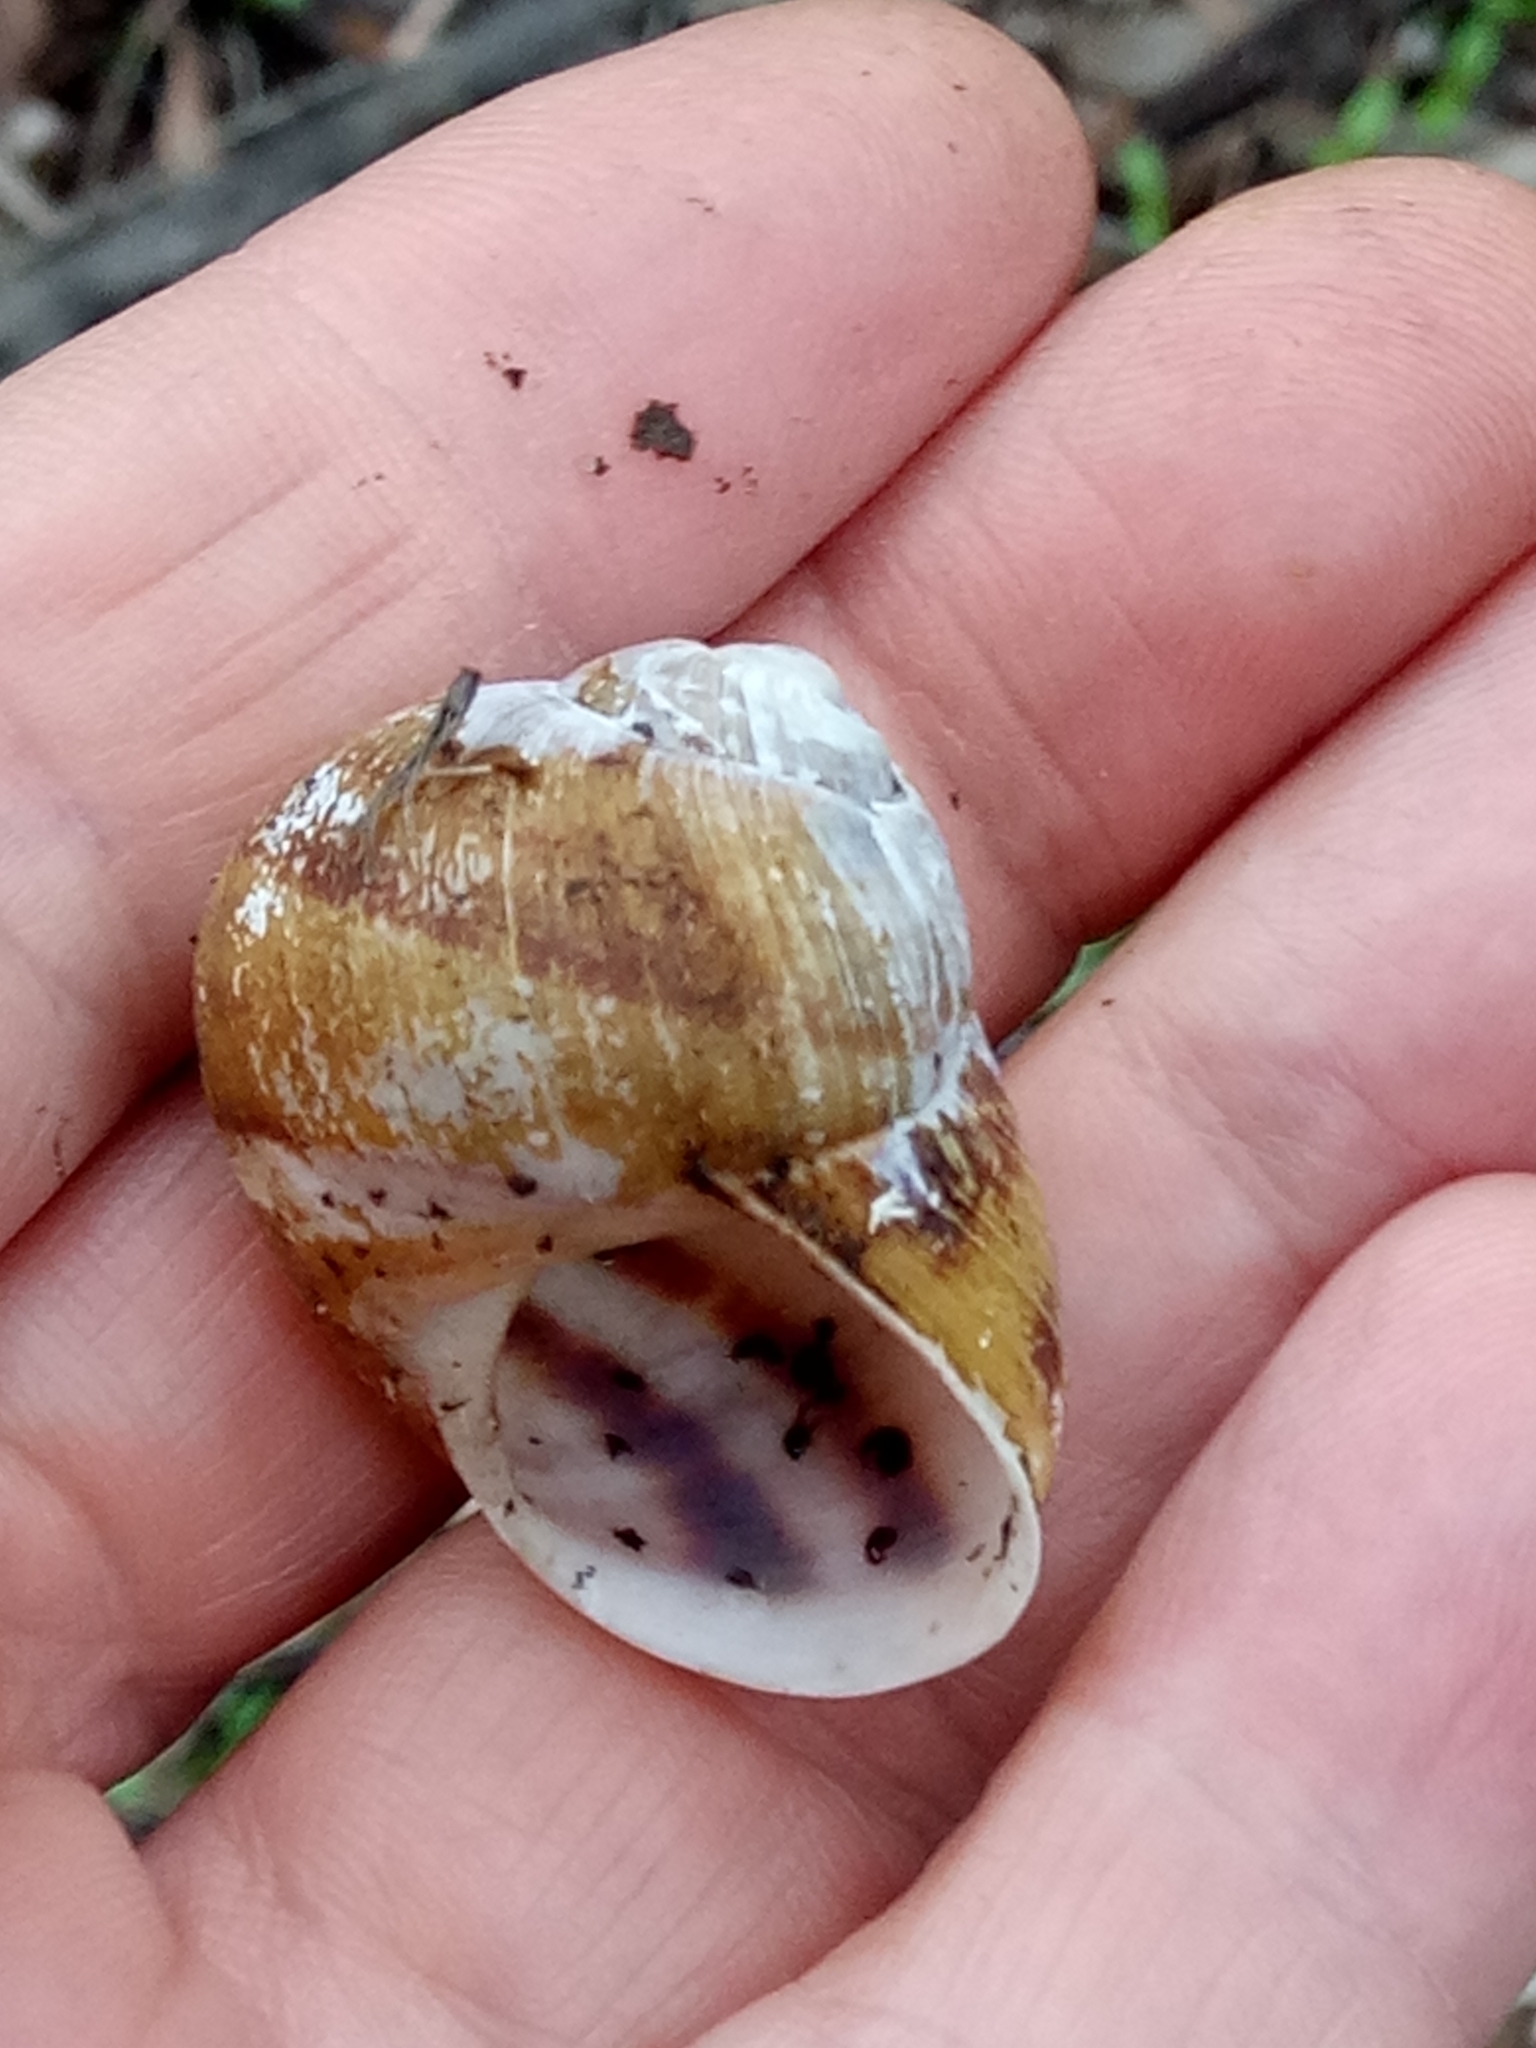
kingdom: Animalia
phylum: Mollusca
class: Gastropoda
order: Stylommatophora
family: Helicidae
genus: Cornu
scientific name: Cornu aspersum
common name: Brown garden snail
